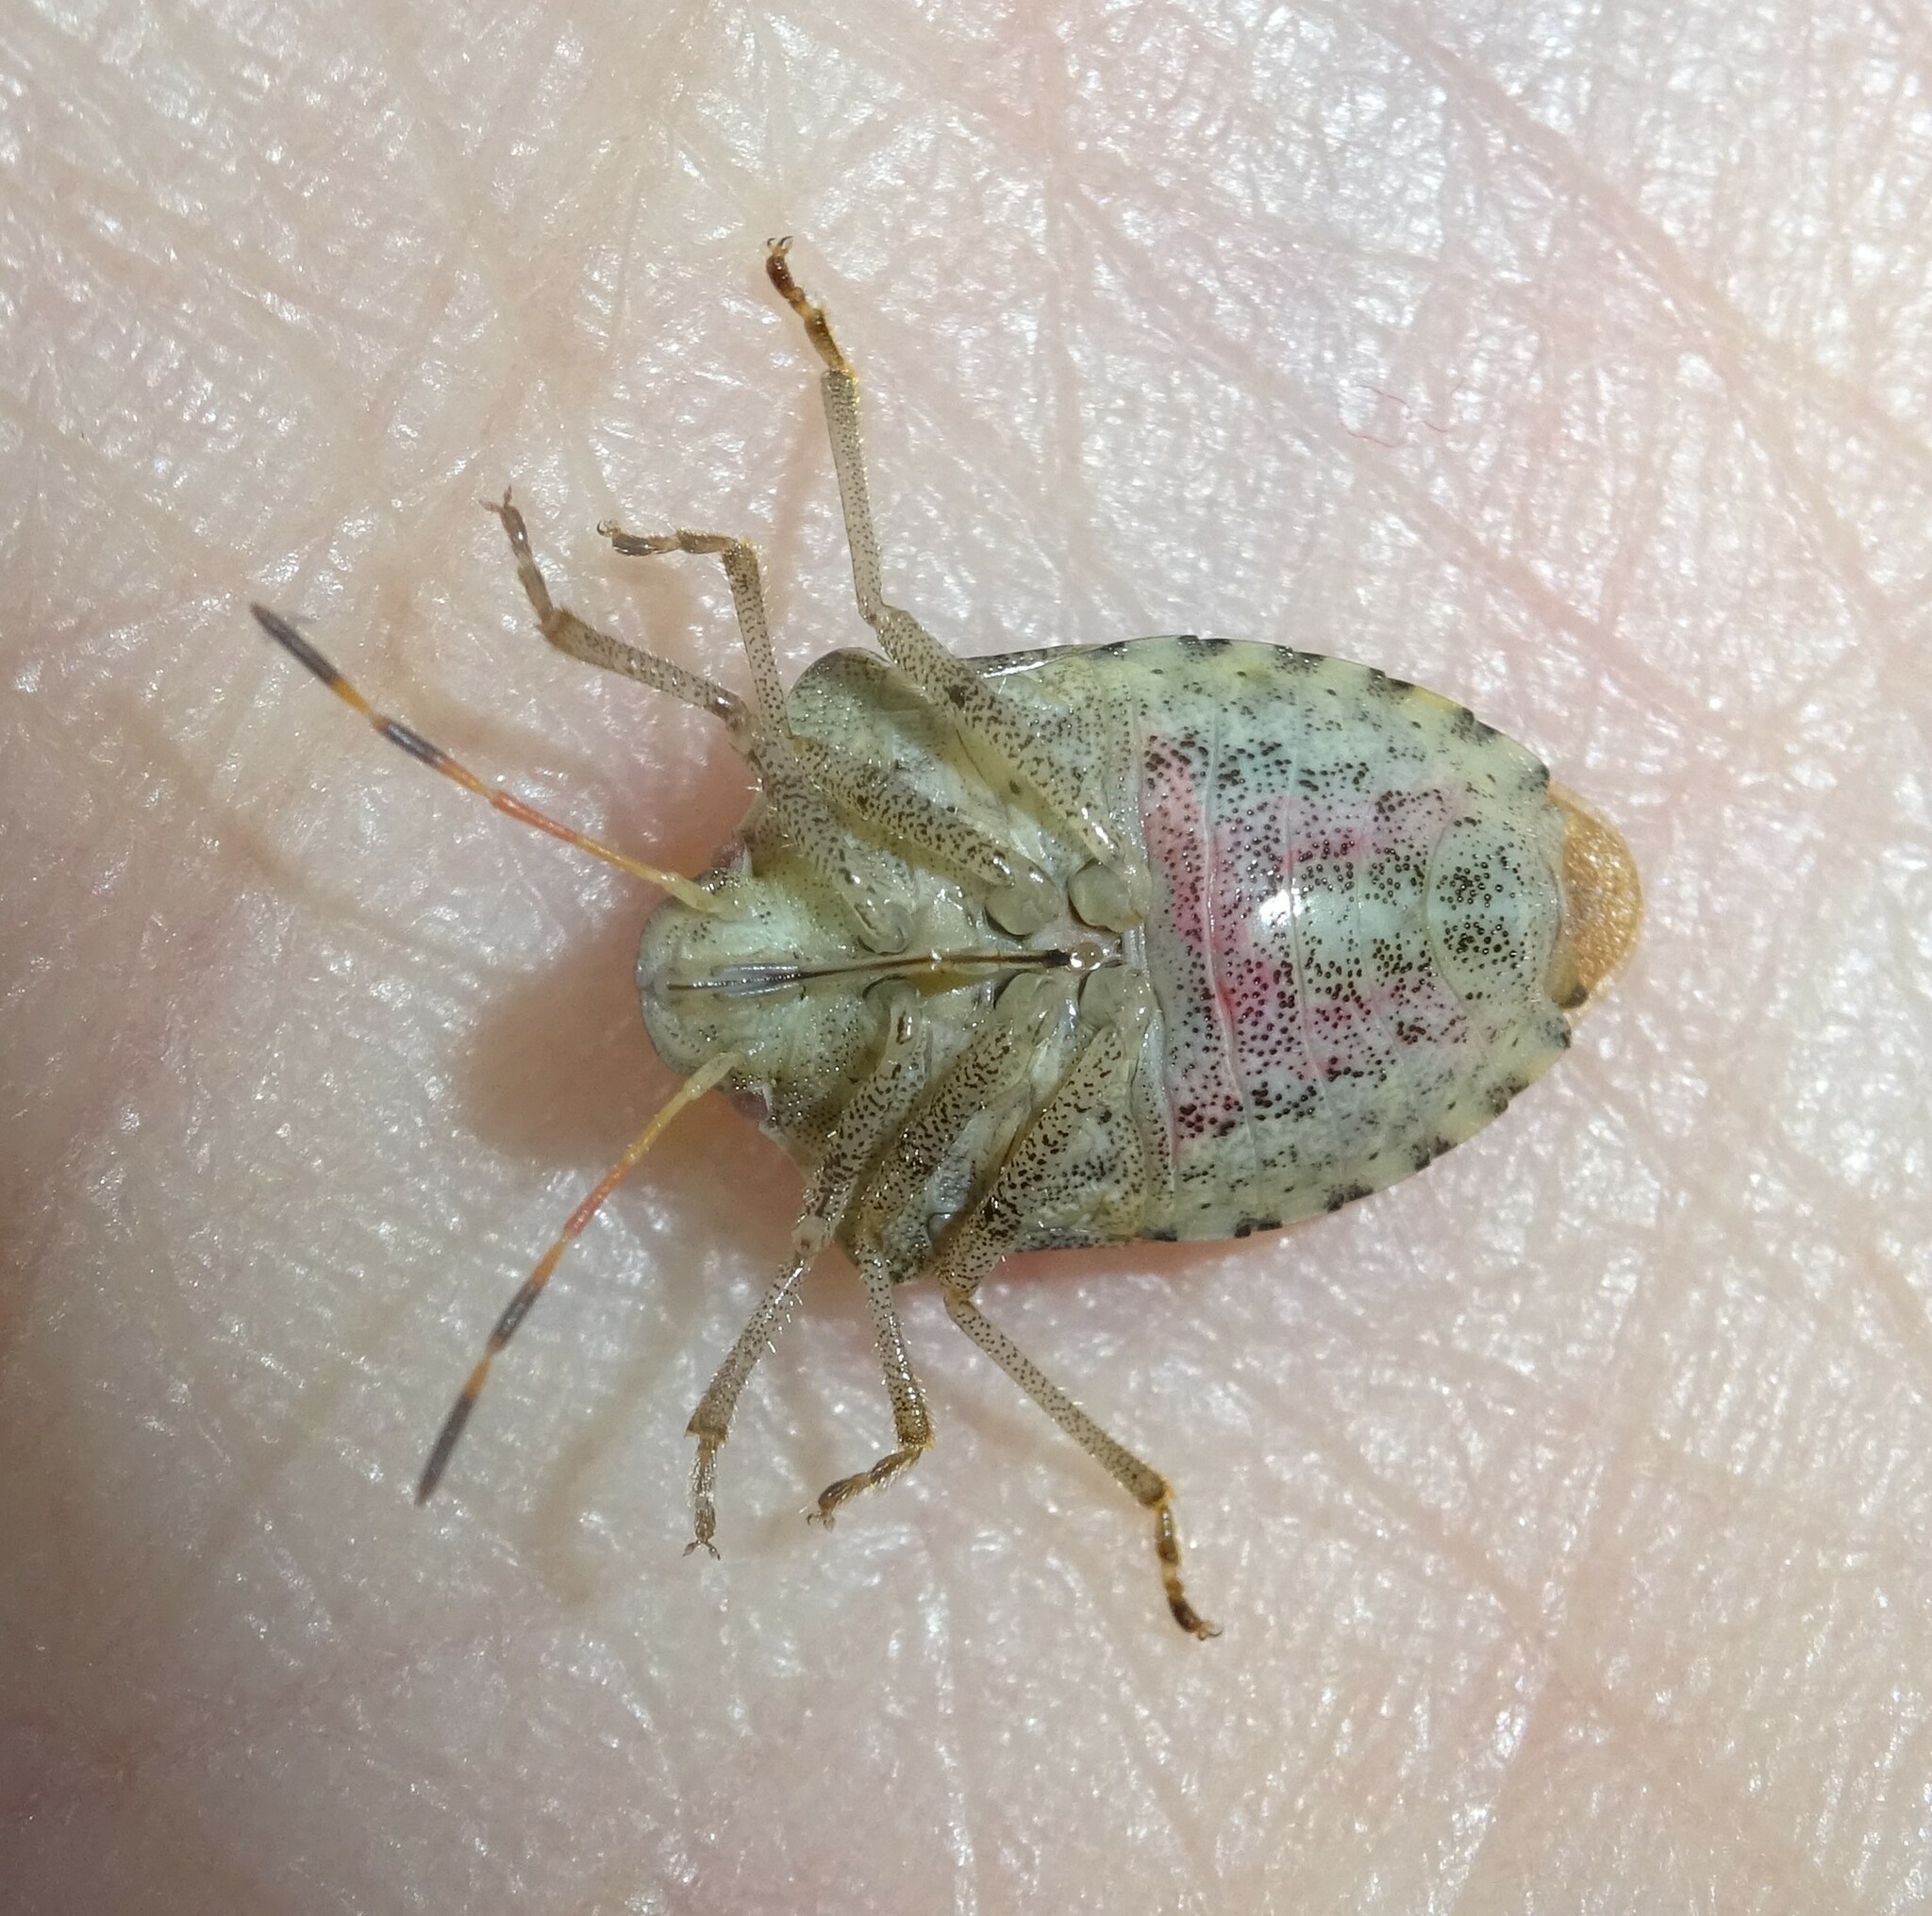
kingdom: Animalia
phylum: Arthropoda
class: Insecta
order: Hemiptera
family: Pentatomidae
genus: Holcostethus
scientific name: Holcostethus strictus
